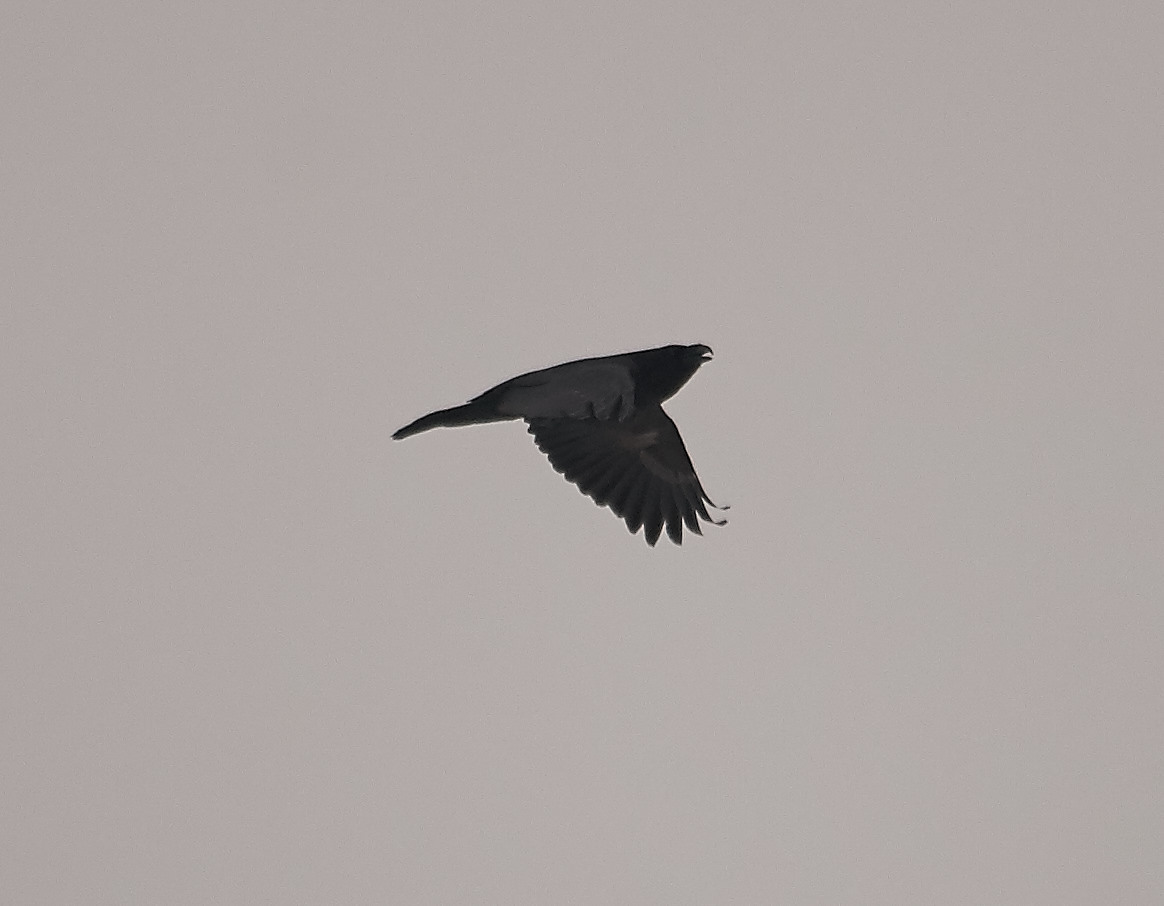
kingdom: Animalia
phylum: Chordata
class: Aves
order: Passeriformes
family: Corvidae
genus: Corvus
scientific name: Corvus corax
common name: Common raven
